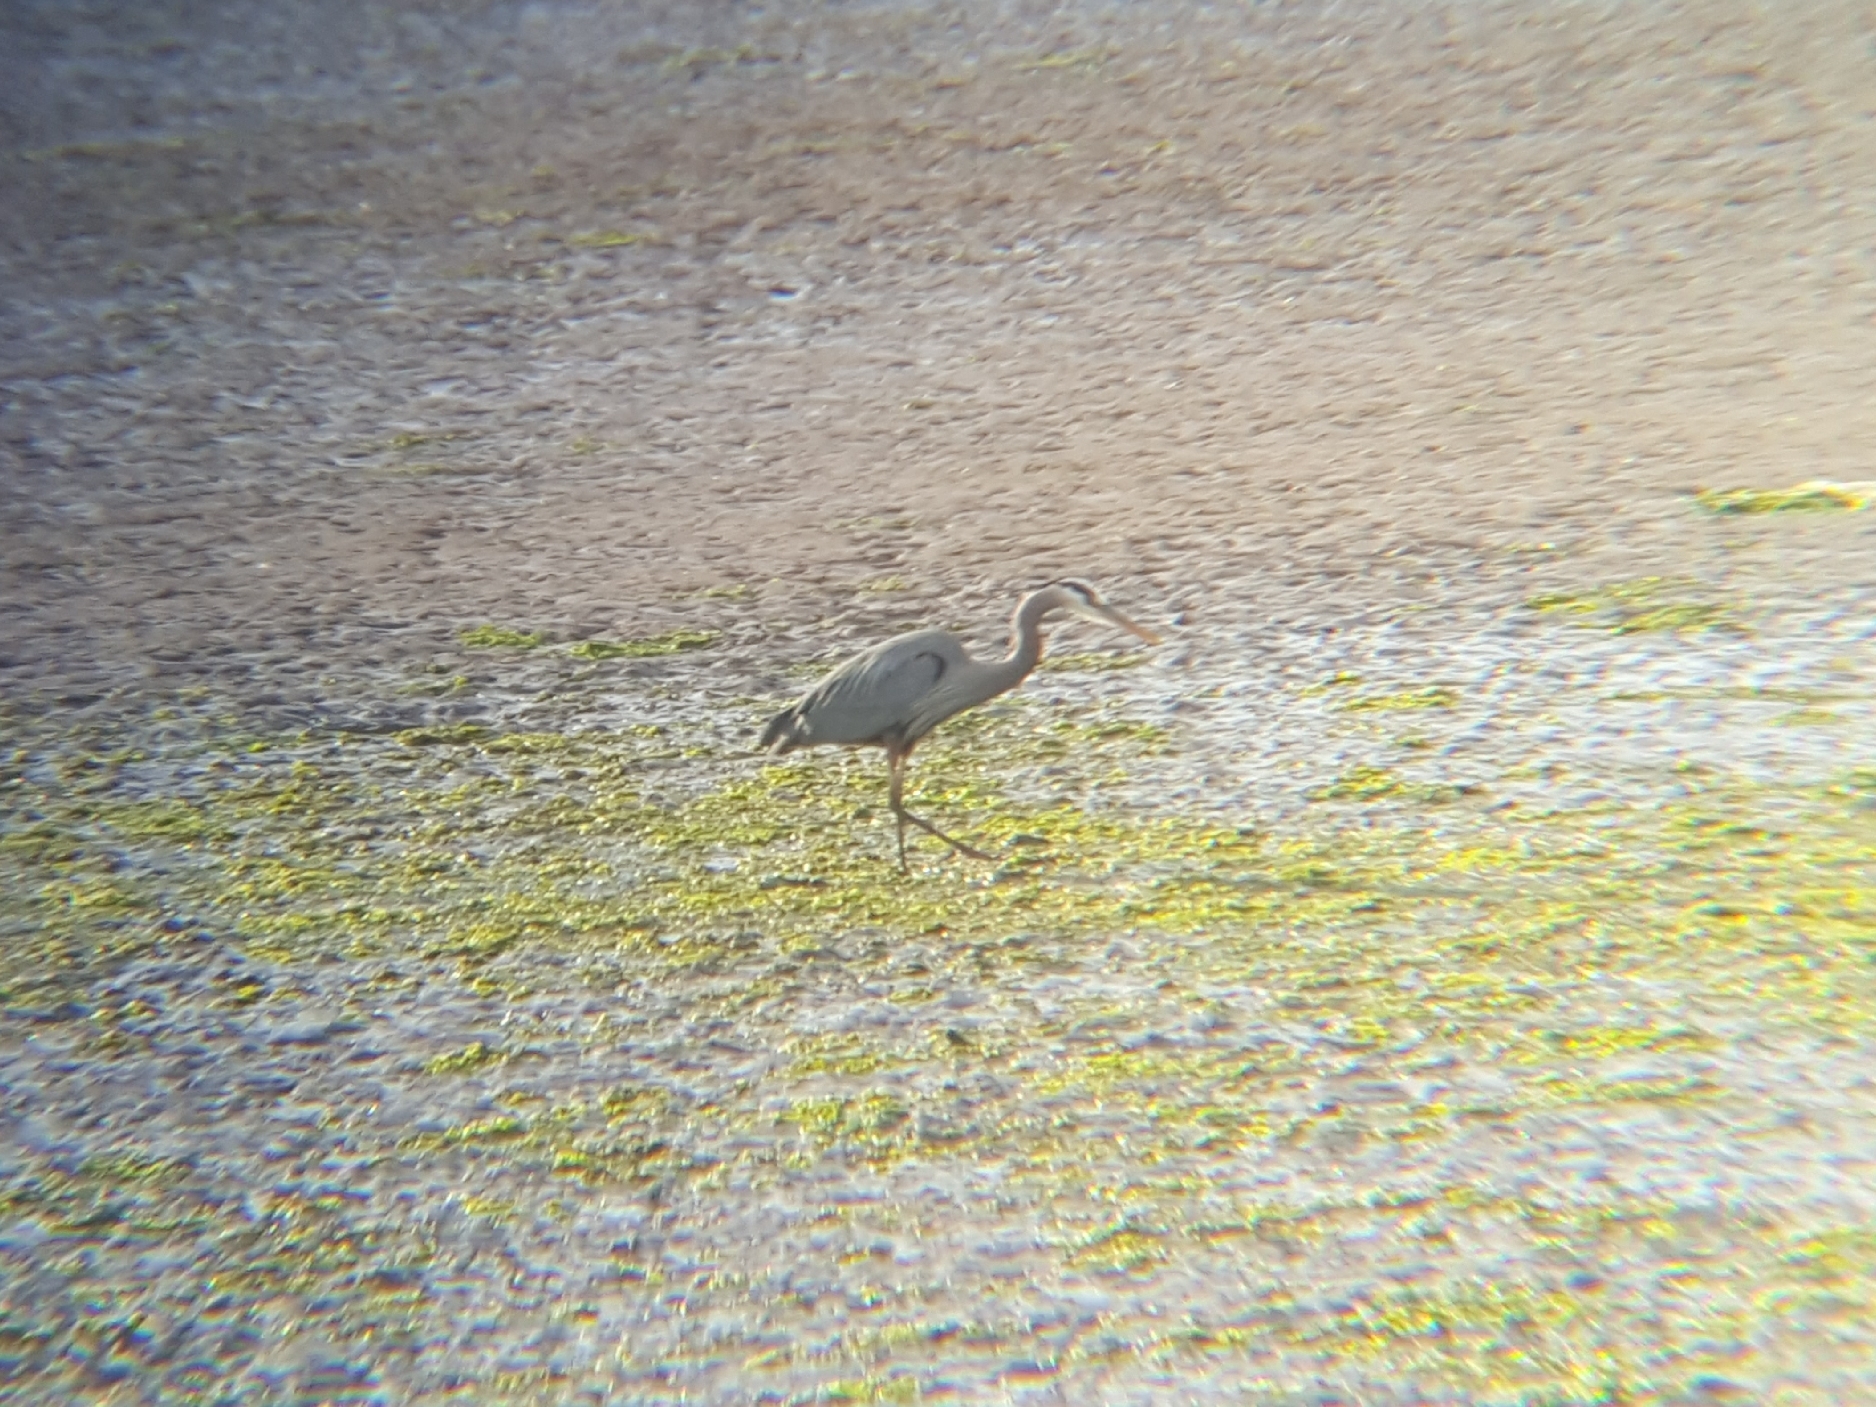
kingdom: Animalia
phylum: Chordata
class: Aves
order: Pelecaniformes
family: Ardeidae
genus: Ardea
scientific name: Ardea herodias
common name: Great blue heron
